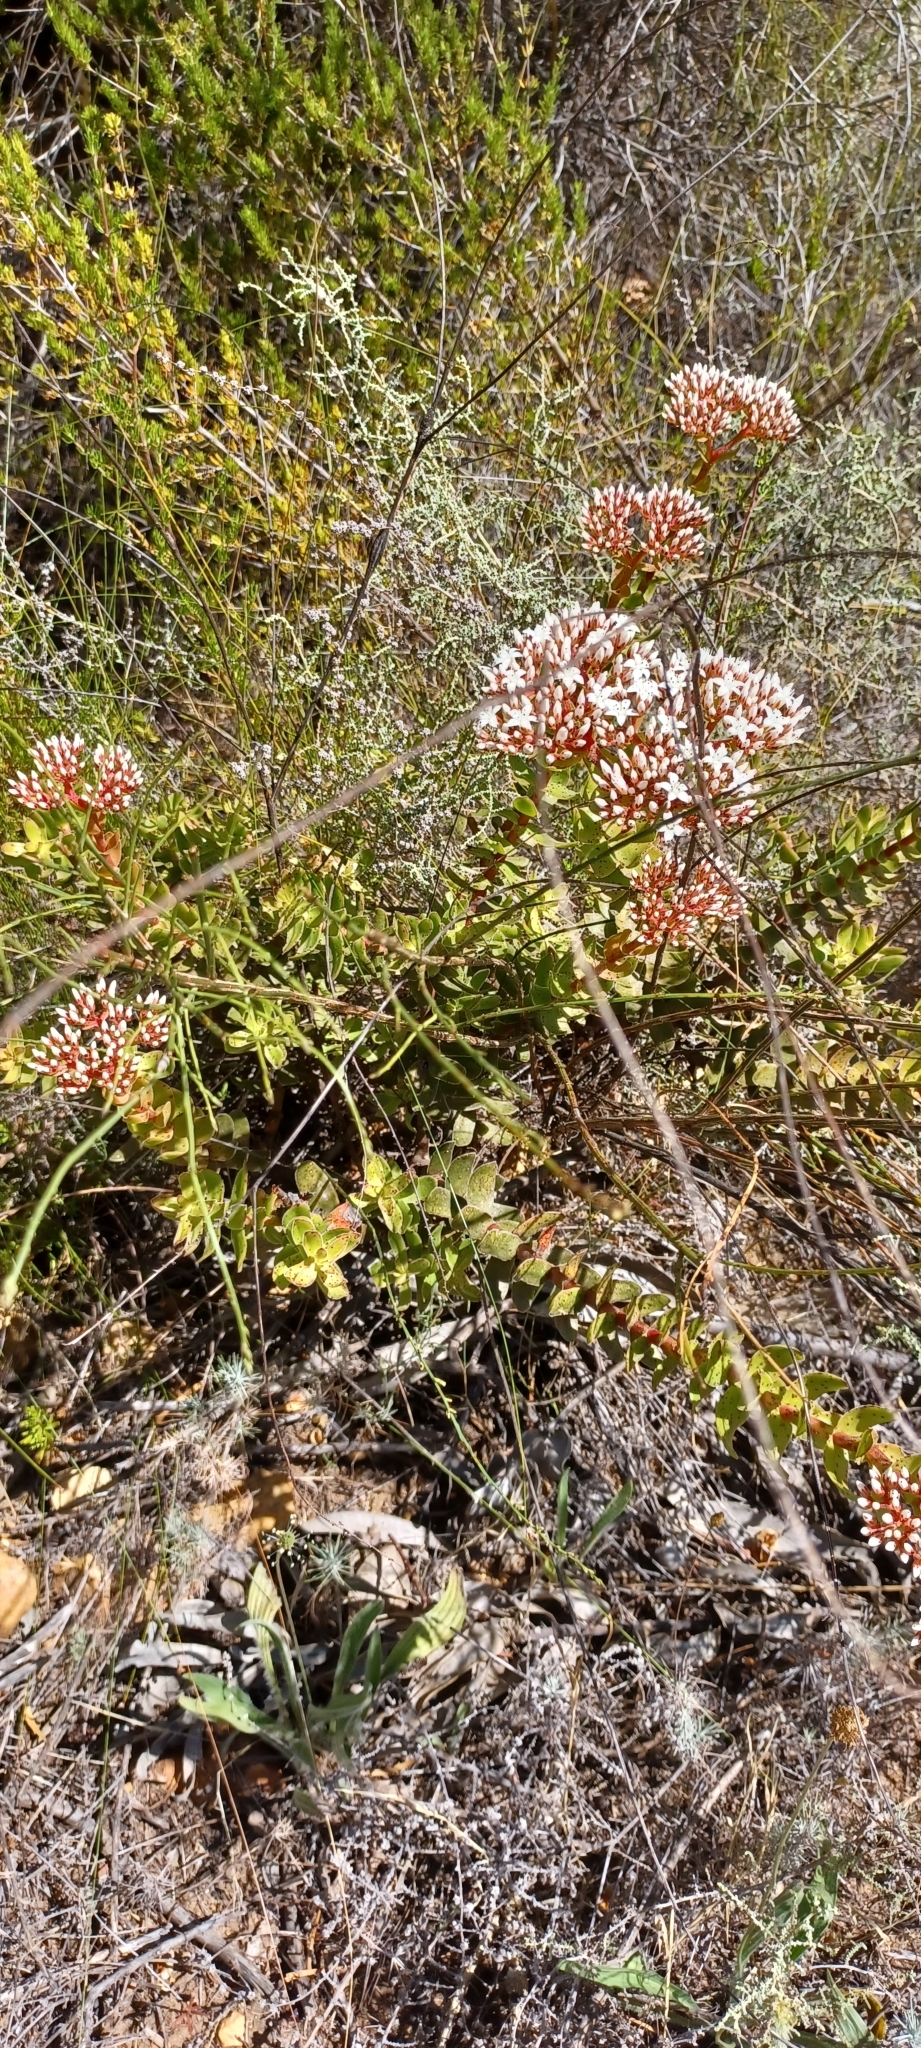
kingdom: Plantae
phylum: Tracheophyta
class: Magnoliopsida
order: Saxifragales
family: Crassulaceae
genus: Crassula
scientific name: Crassula undulata
